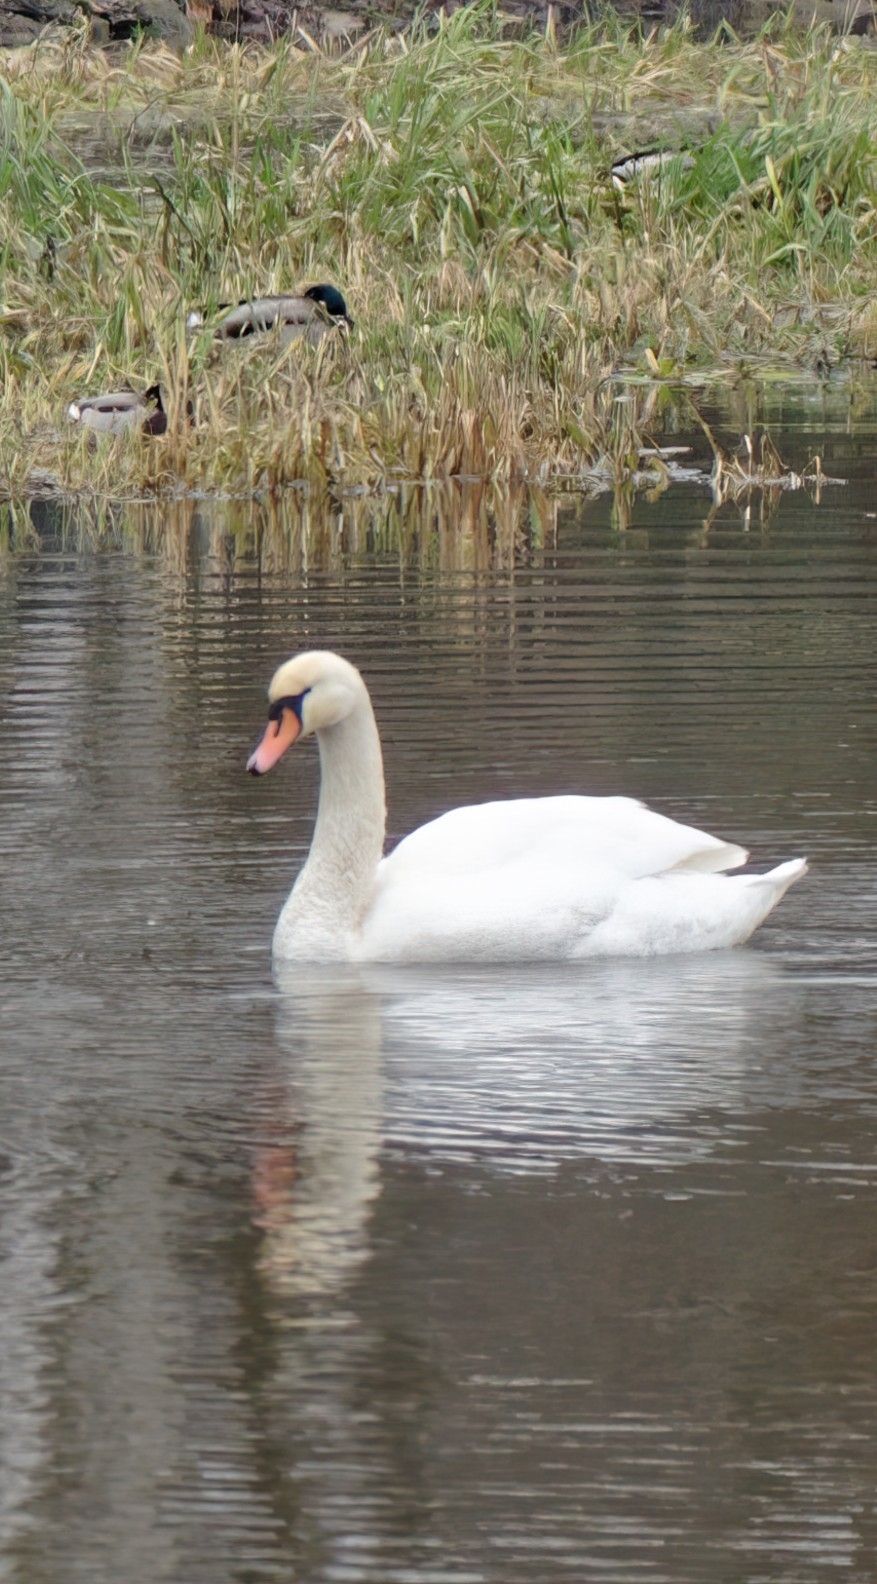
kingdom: Animalia
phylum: Chordata
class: Aves
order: Anseriformes
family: Anatidae
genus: Cygnus
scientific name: Cygnus olor
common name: Mute swan
